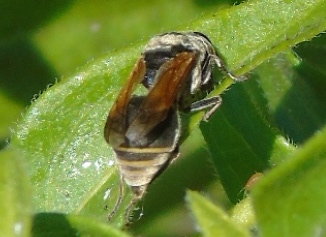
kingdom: Animalia
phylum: Arthropoda
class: Insecta
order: Hymenoptera
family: Vespidae
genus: Brachygastra
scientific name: Brachygastra mellifica
